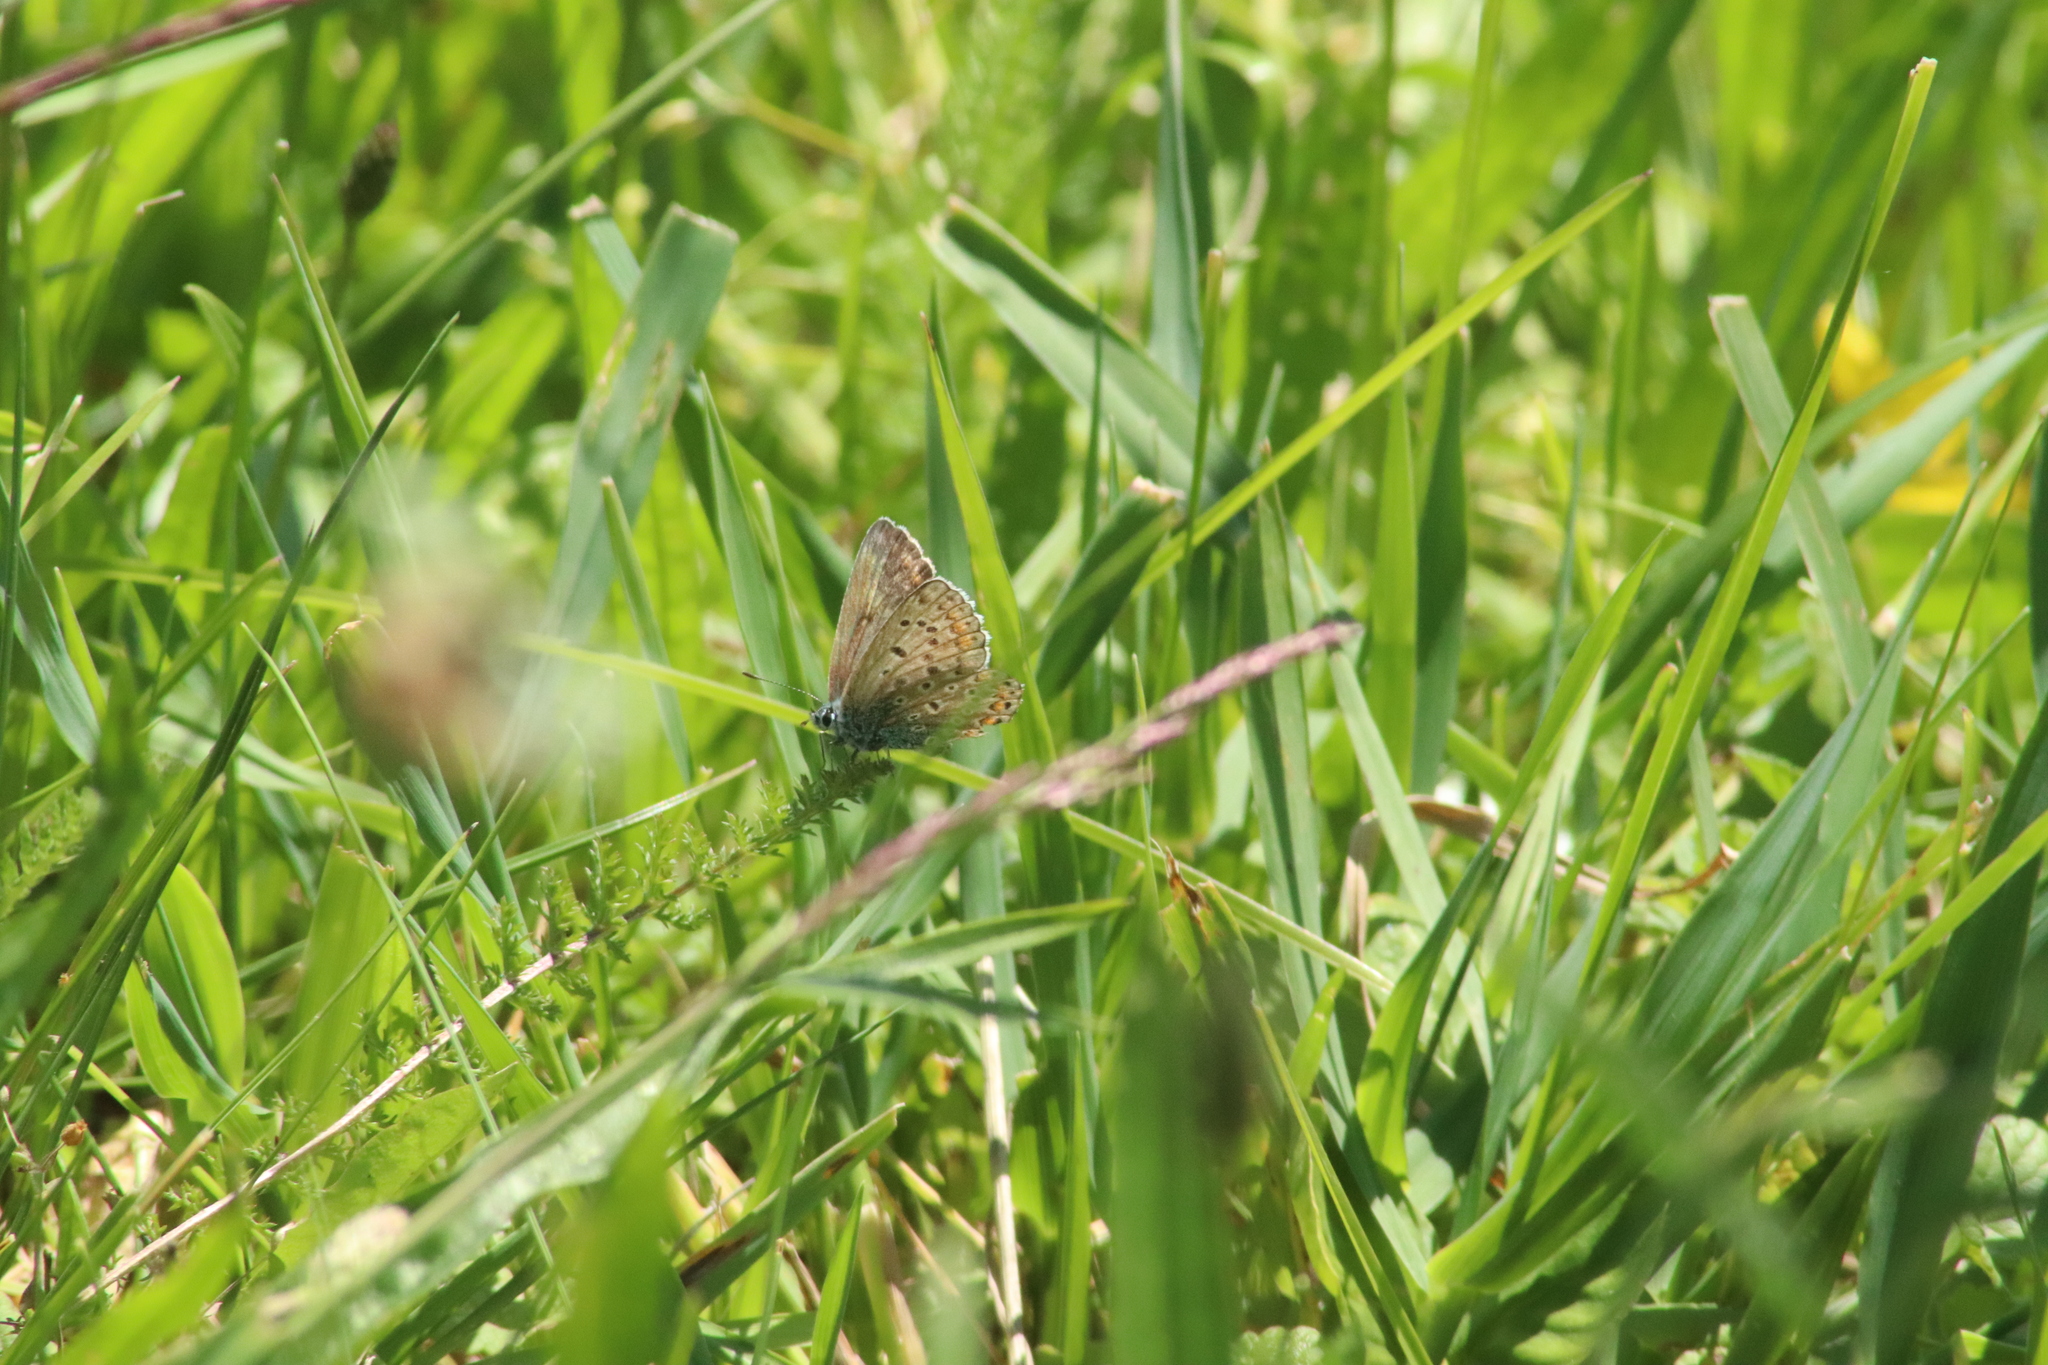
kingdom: Animalia
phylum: Arthropoda
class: Insecta
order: Lepidoptera
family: Lycaenidae
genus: Polyommatus
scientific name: Polyommatus icarus
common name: Common blue
